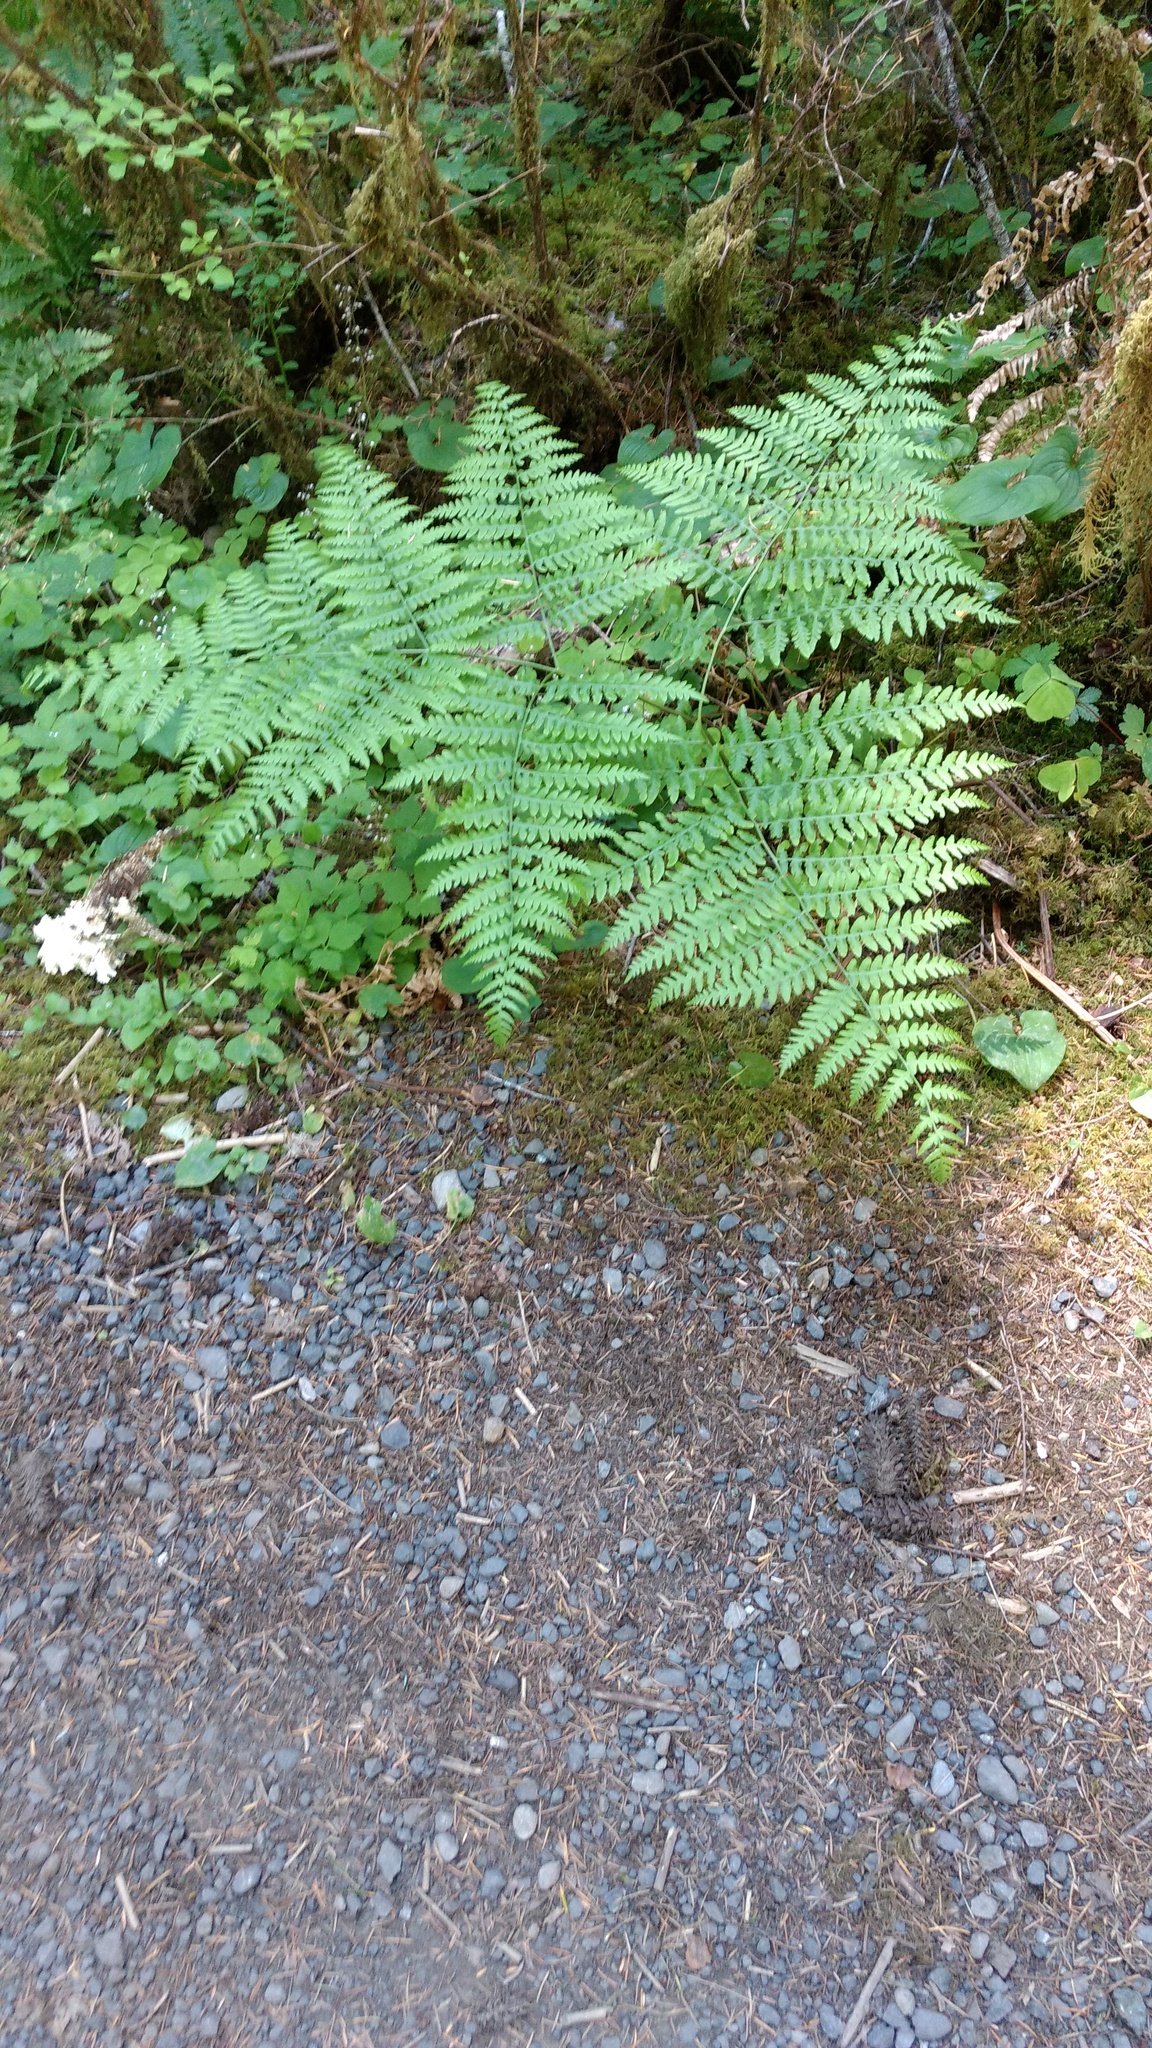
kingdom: Plantae
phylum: Tracheophyta
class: Polypodiopsida
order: Polypodiales
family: Dennstaedtiaceae
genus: Pteridium
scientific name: Pteridium aquilinum
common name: Bracken
